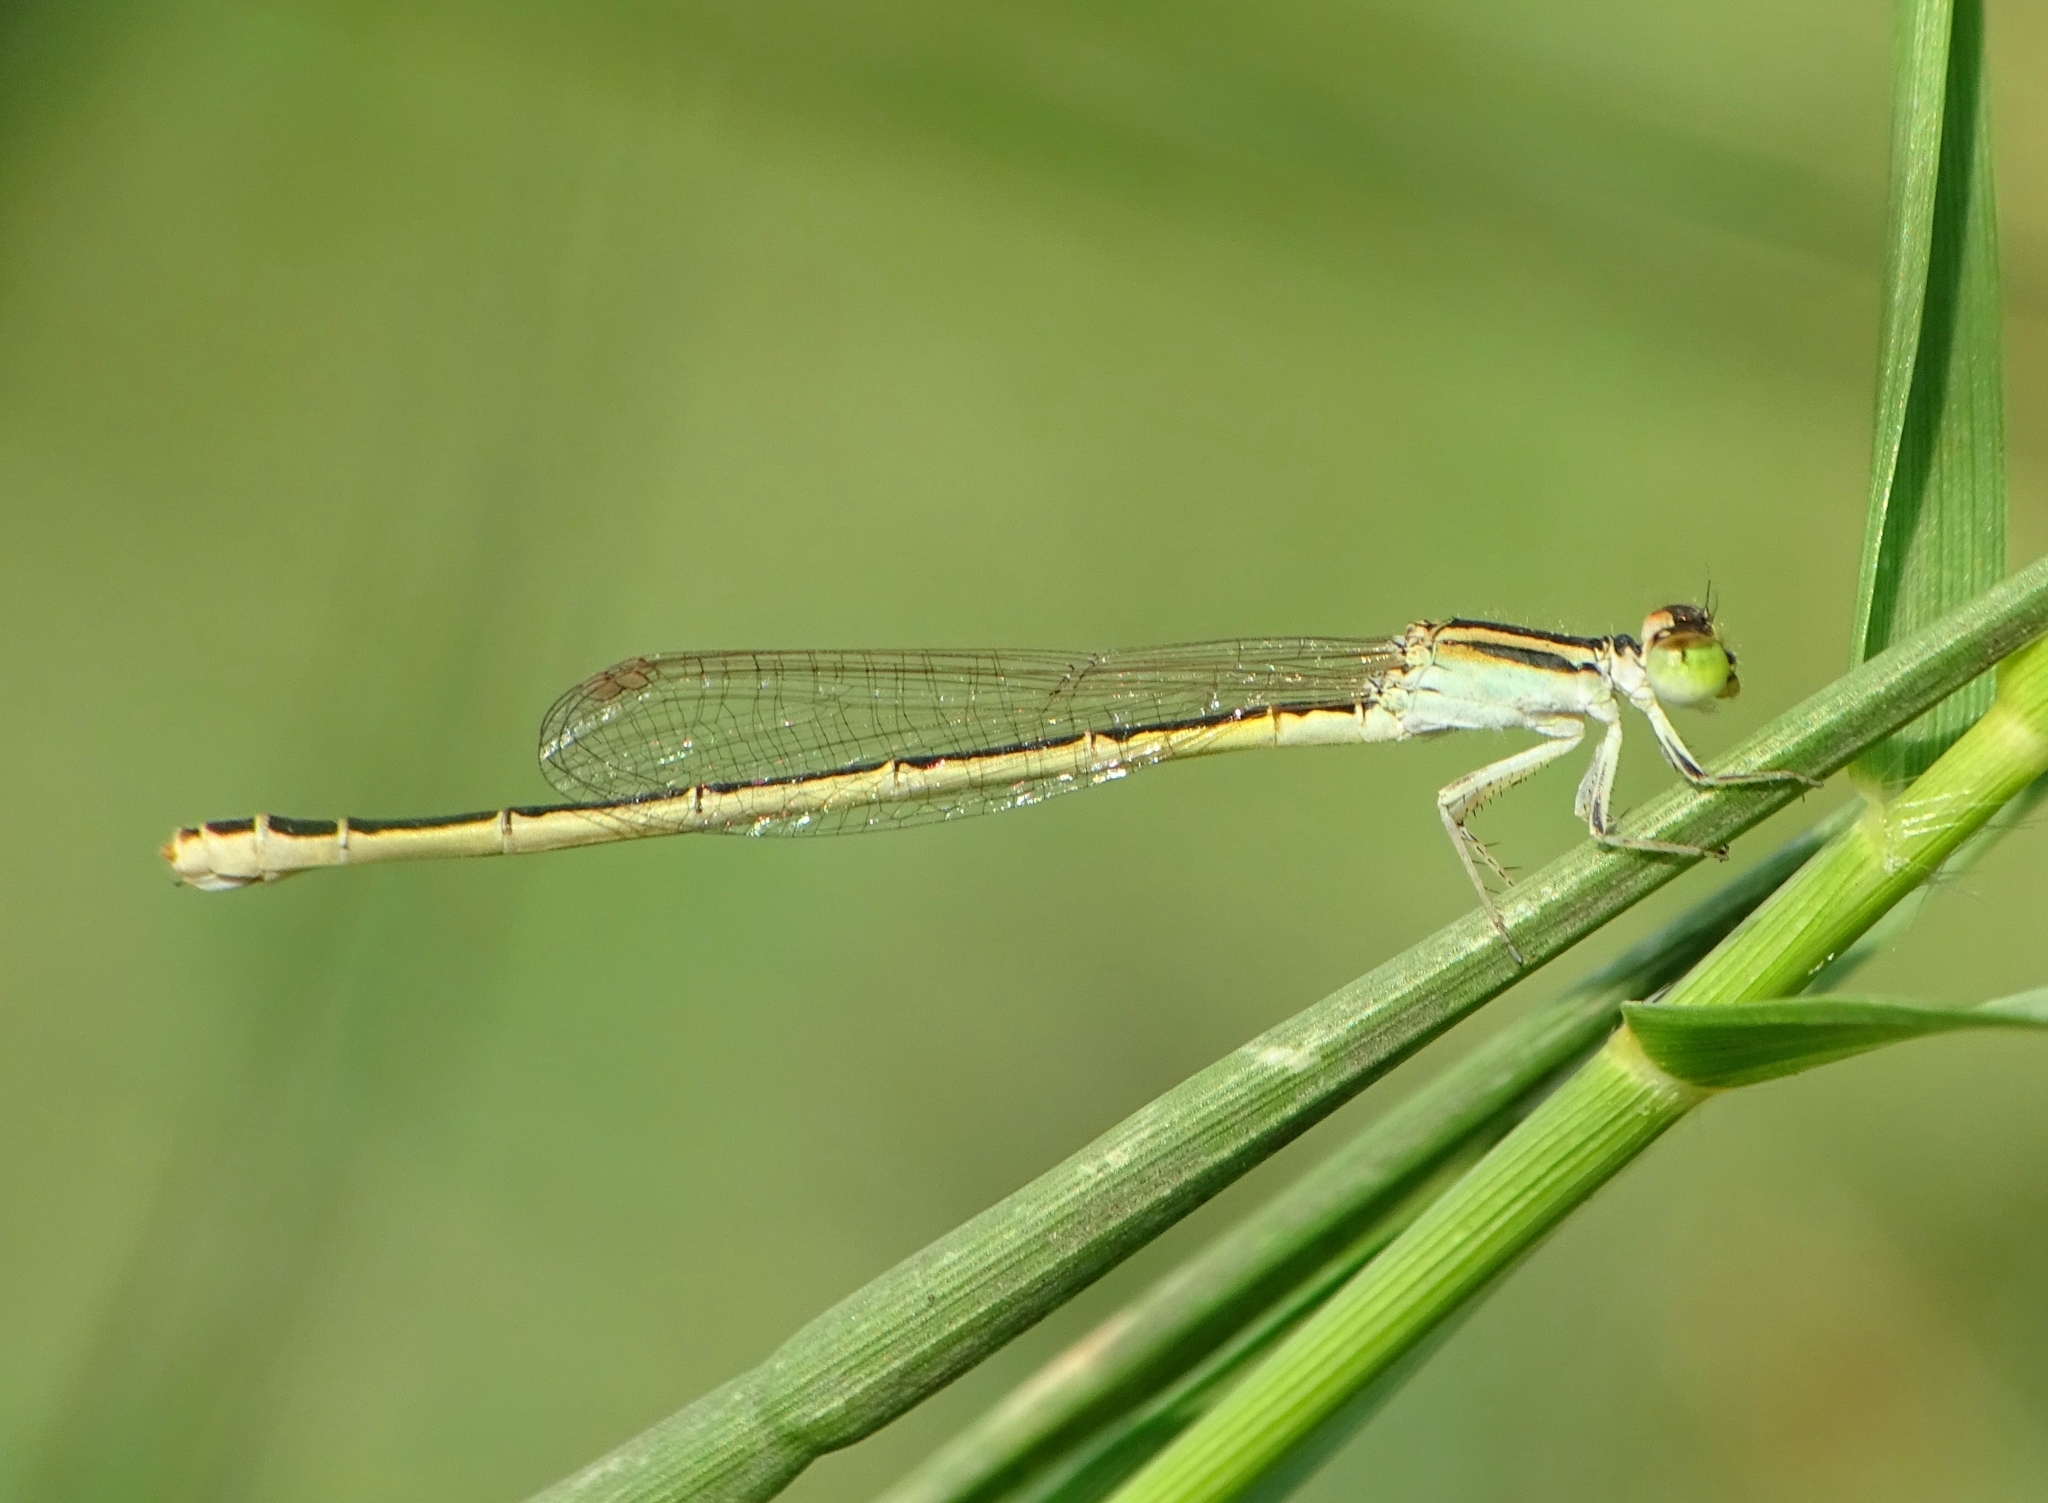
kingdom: Animalia
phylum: Arthropoda
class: Insecta
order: Odonata
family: Coenagrionidae
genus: Ischnura
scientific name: Ischnura rubilio
